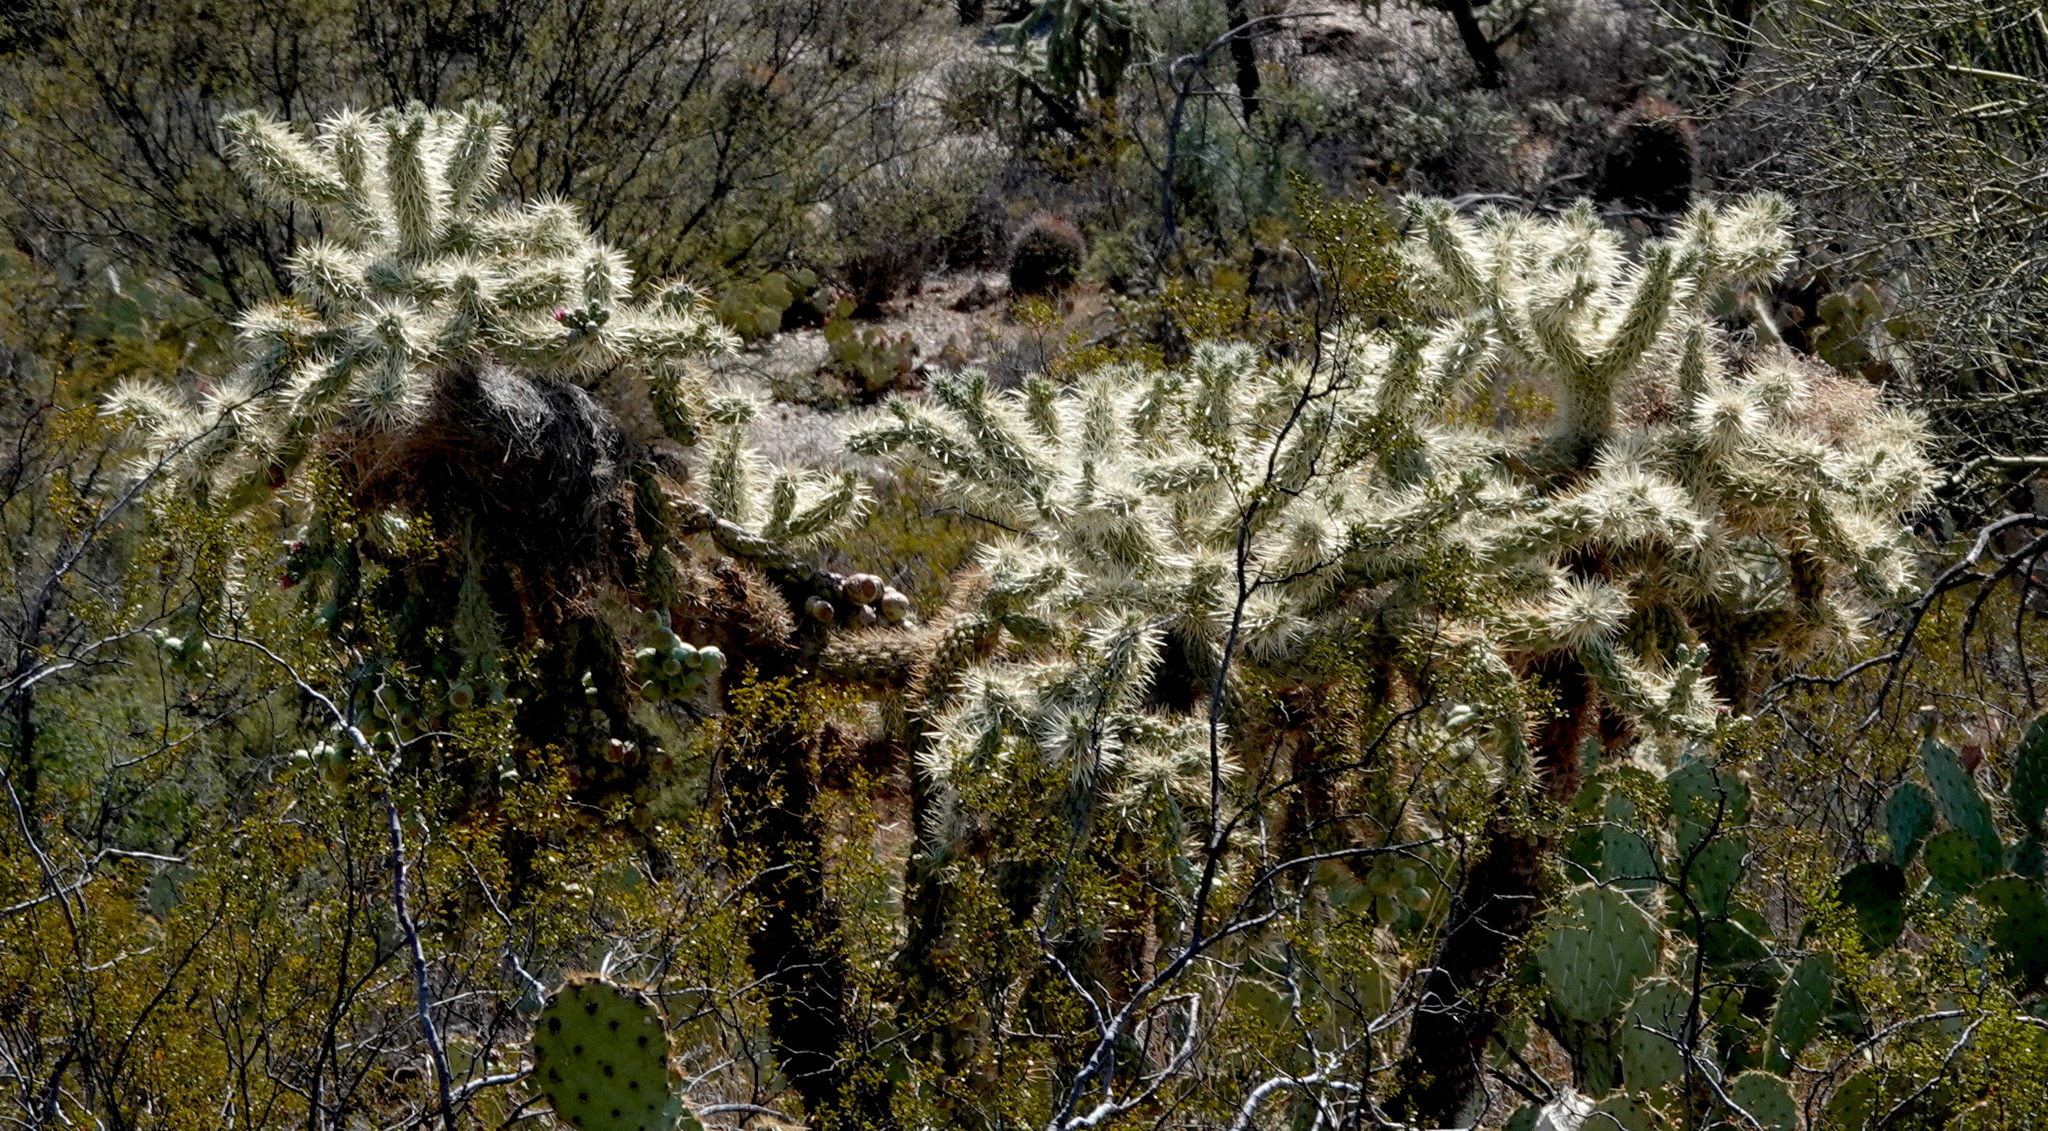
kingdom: Plantae
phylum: Tracheophyta
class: Magnoliopsida
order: Caryophyllales
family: Cactaceae
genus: Cylindropuntia
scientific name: Cylindropuntia fulgida
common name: Jumping cholla
